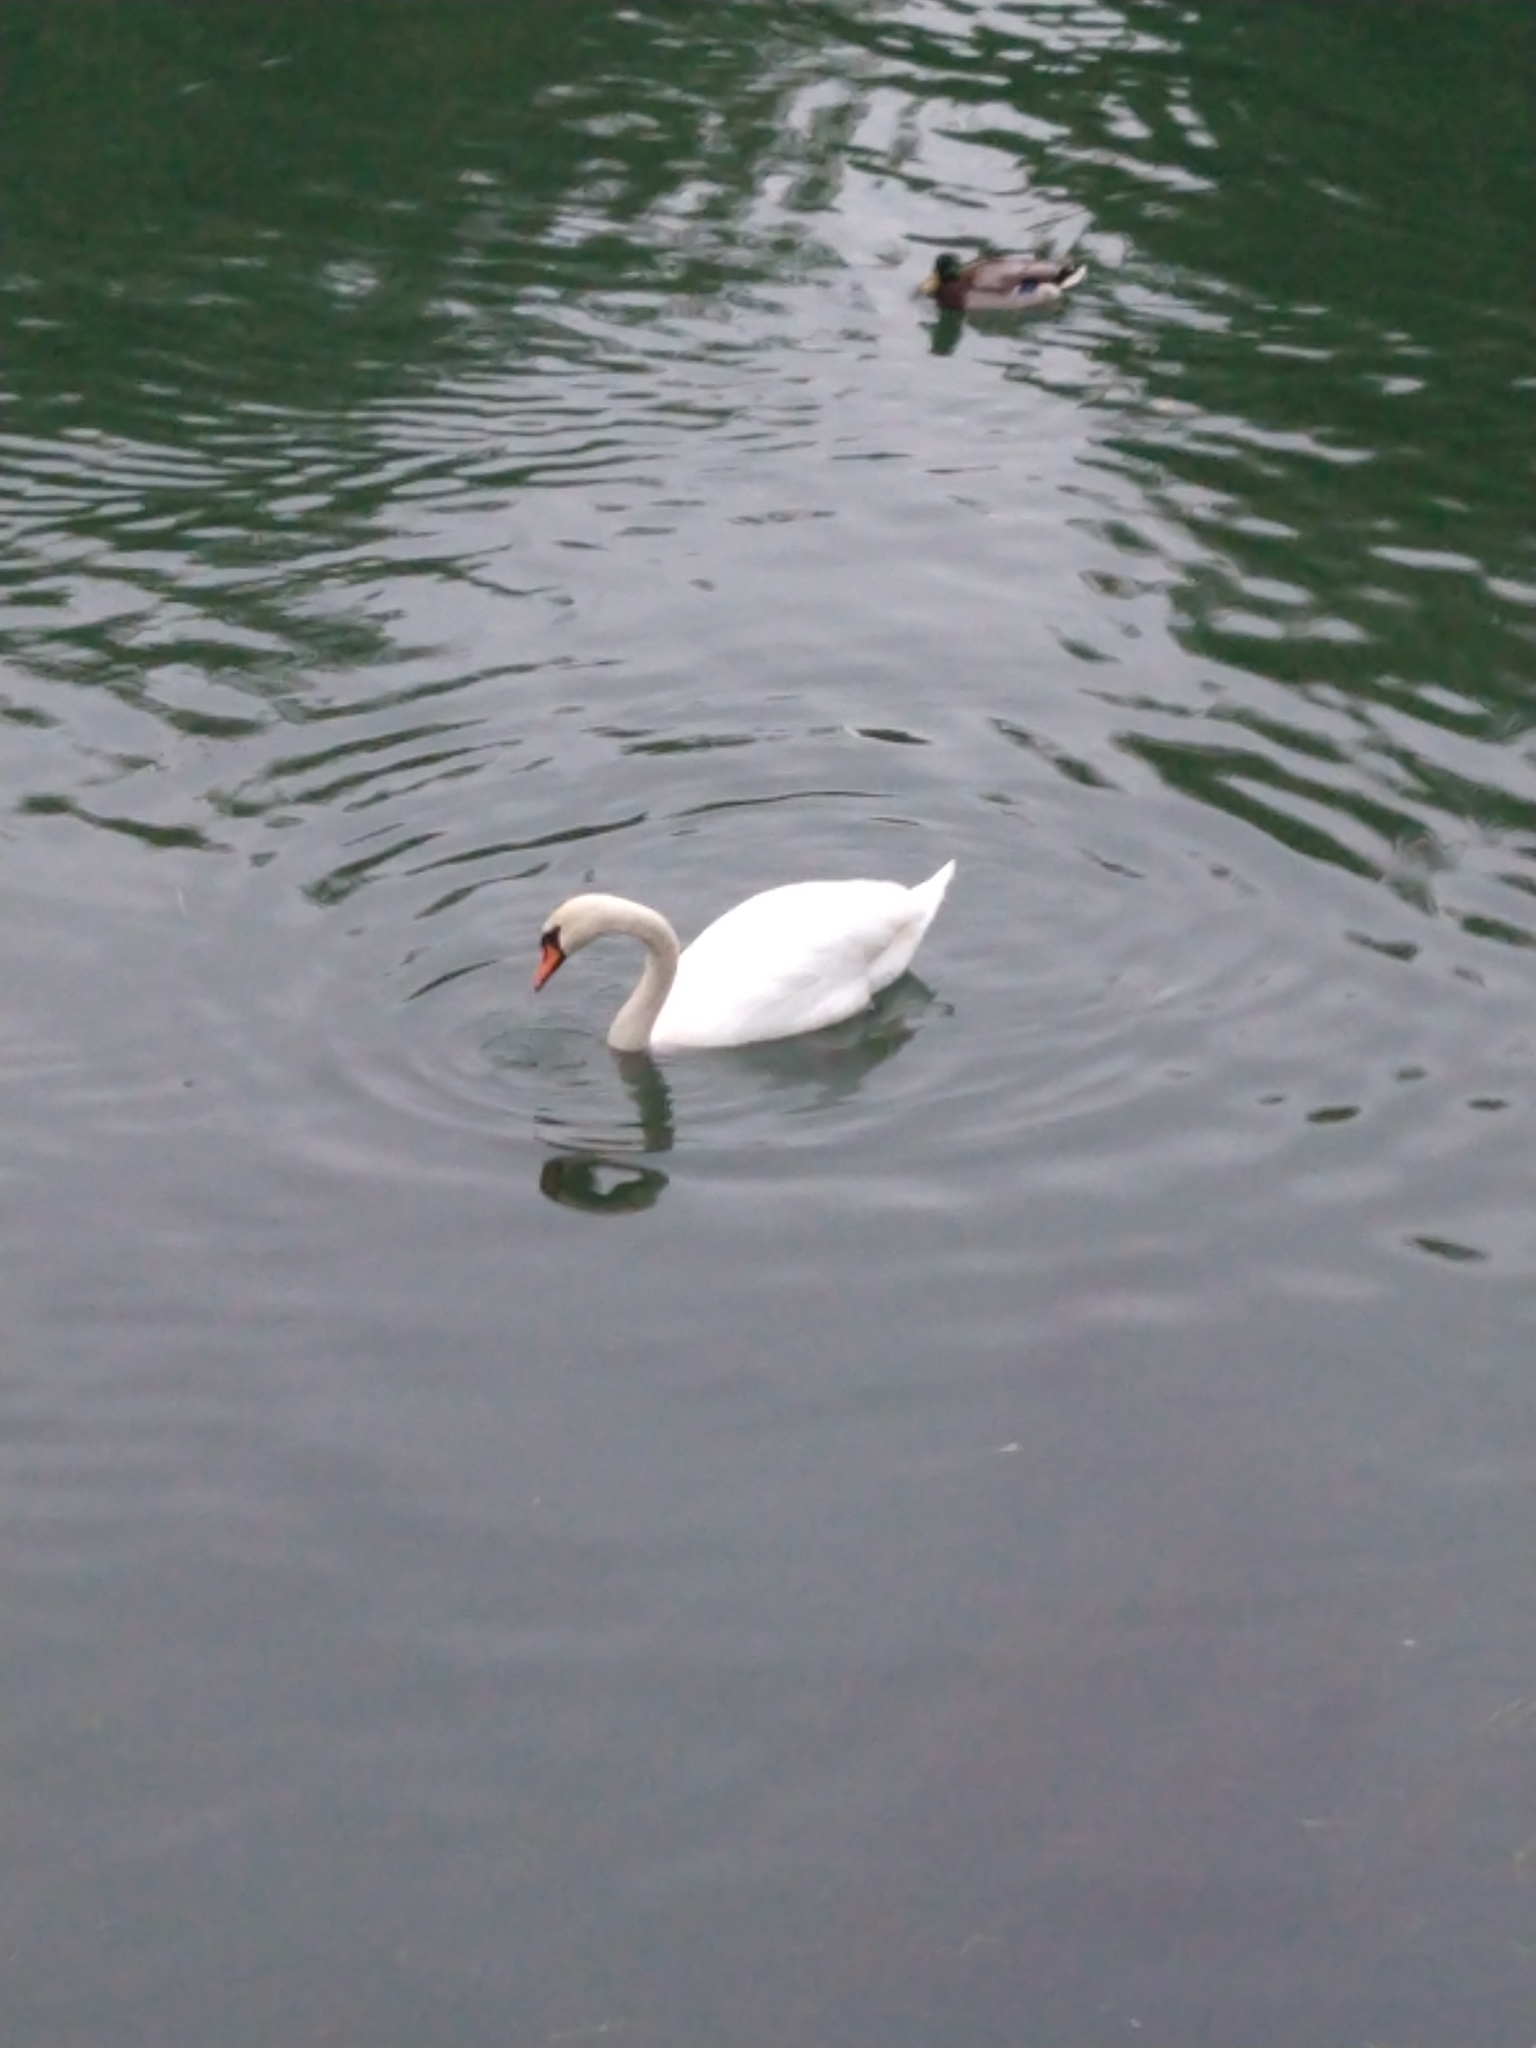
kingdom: Animalia
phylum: Chordata
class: Aves
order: Anseriformes
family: Anatidae
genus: Cygnus
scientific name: Cygnus olor
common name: Mute swan
